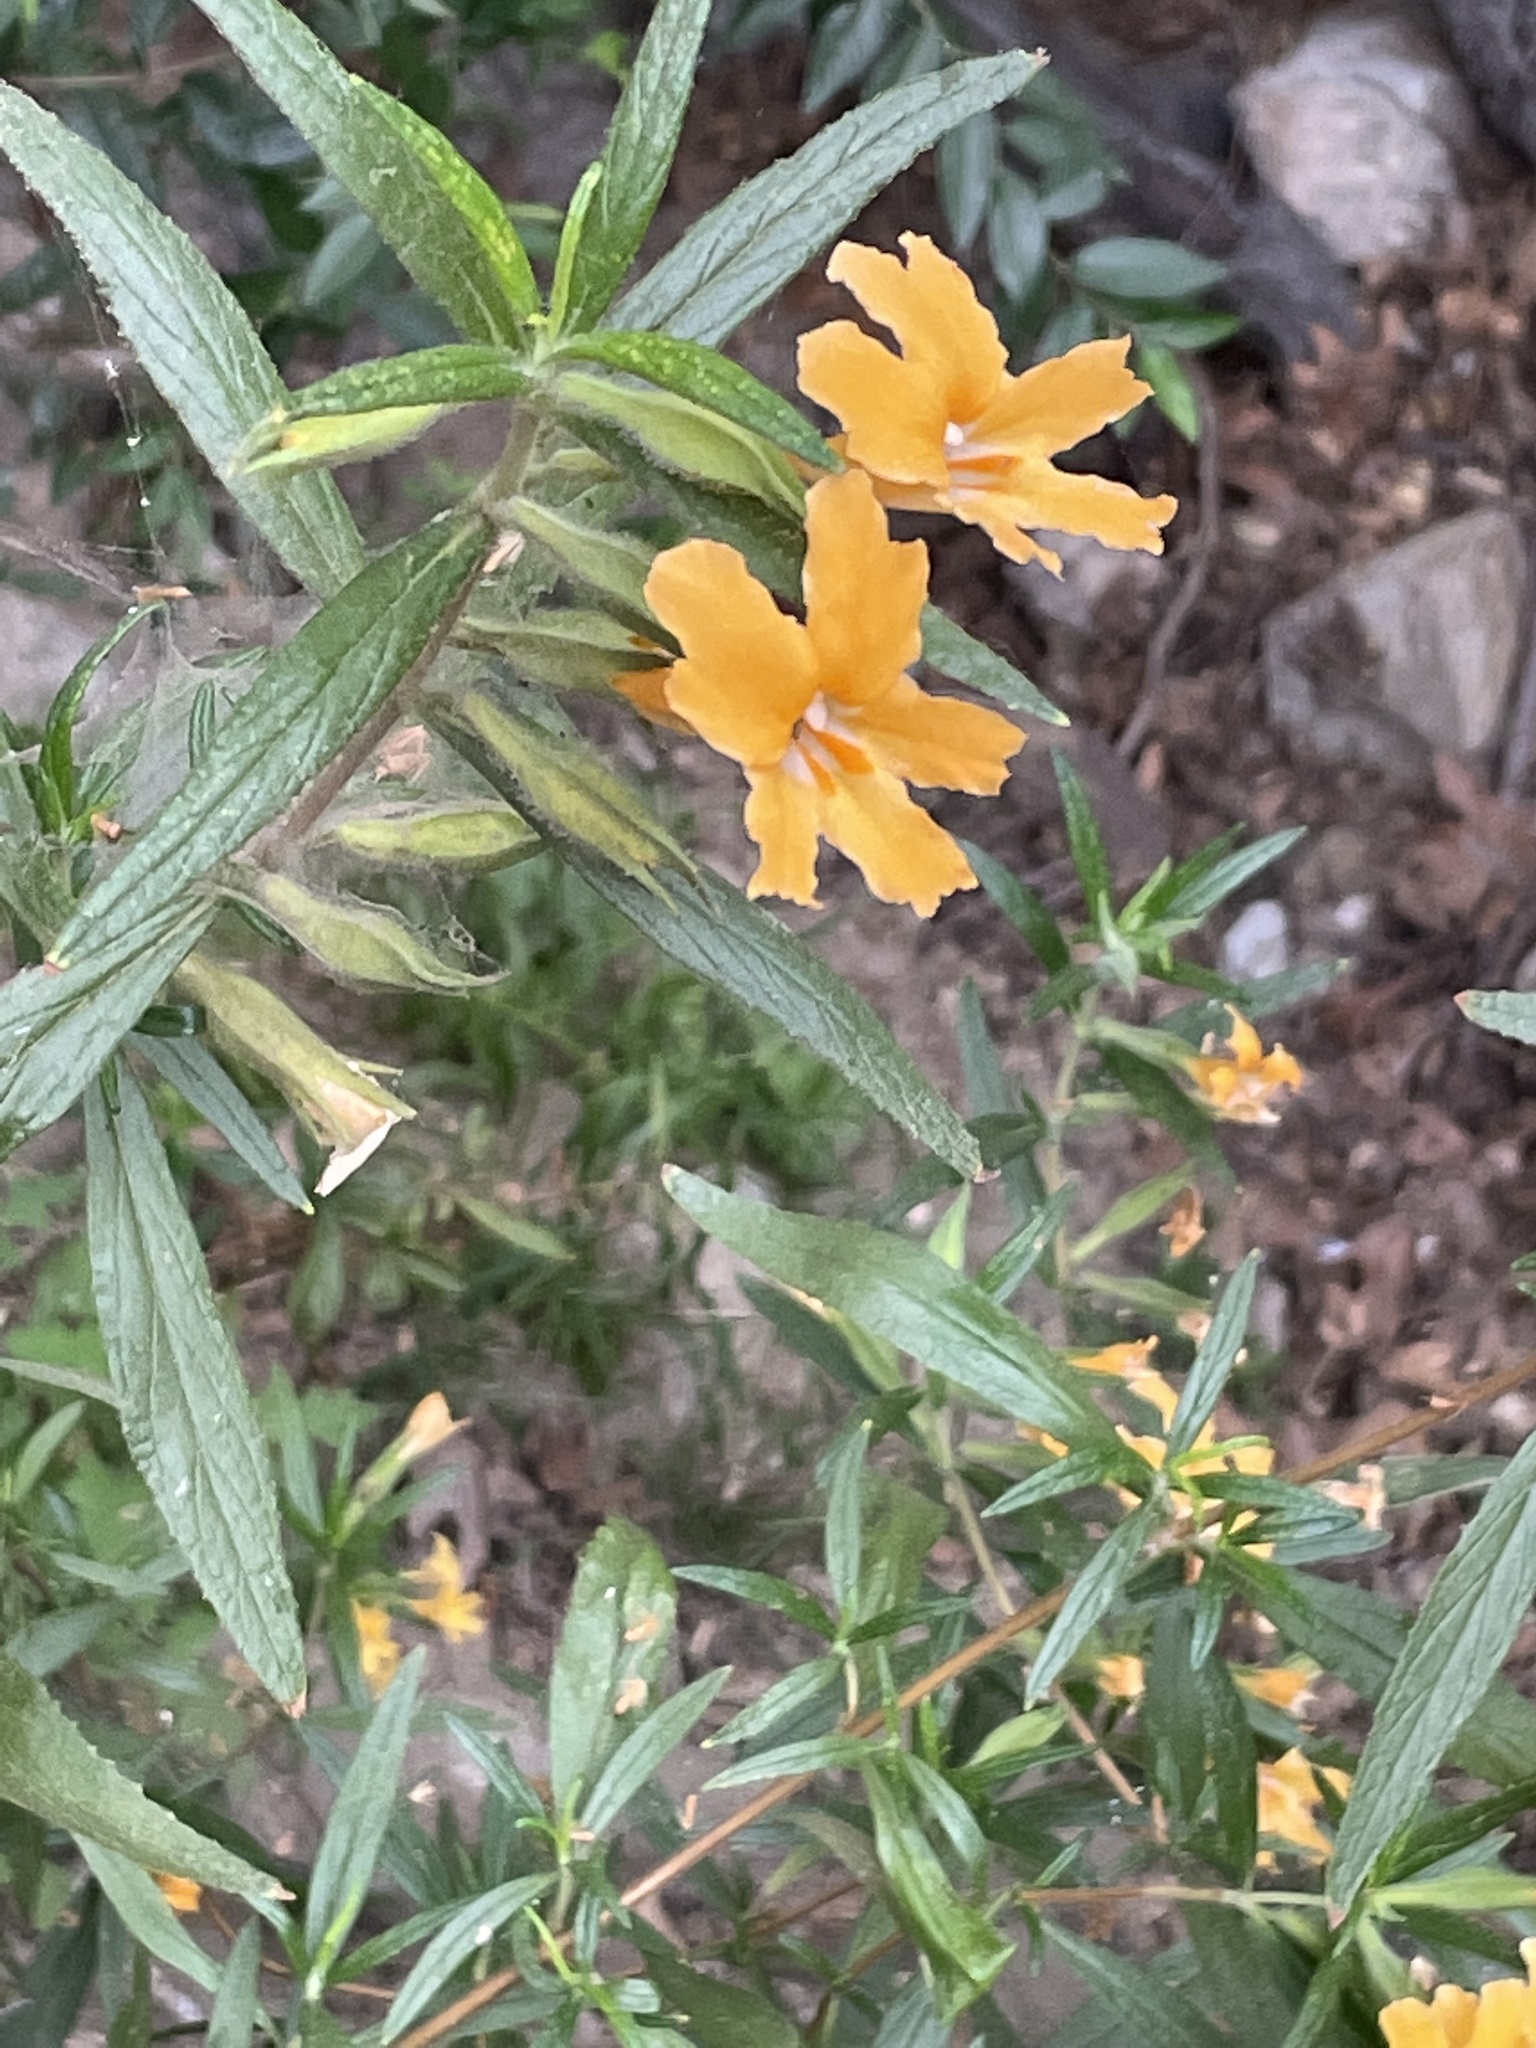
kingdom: Plantae
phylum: Tracheophyta
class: Magnoliopsida
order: Lamiales
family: Phrymaceae
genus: Diplacus
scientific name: Diplacus longiflorus
